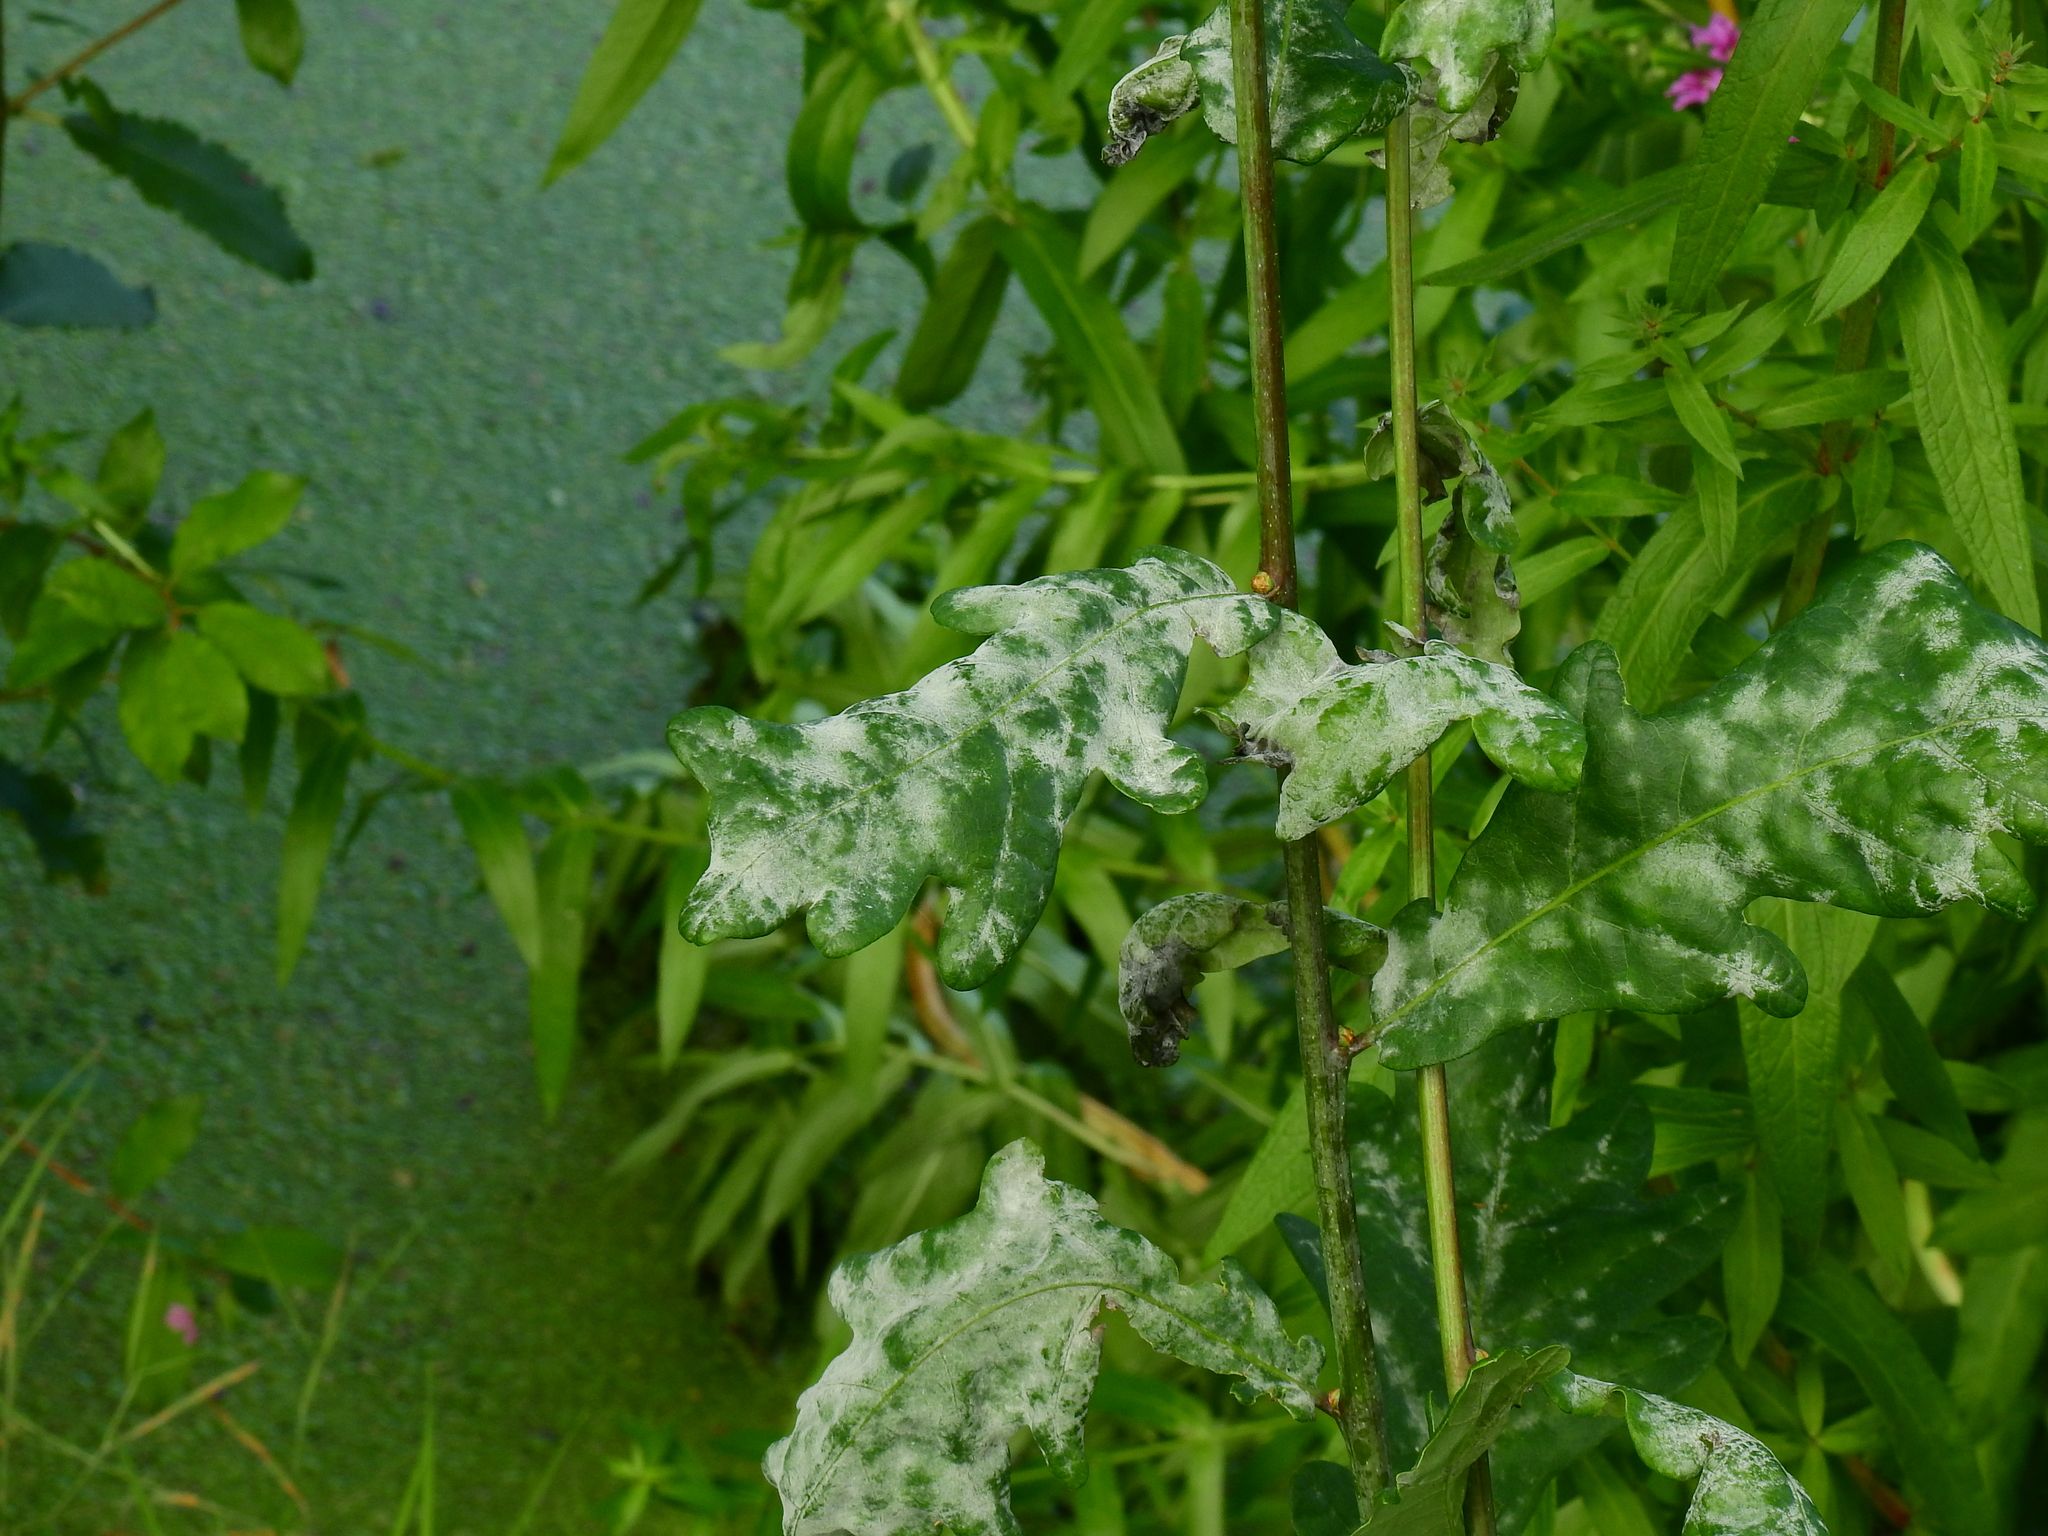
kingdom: Fungi
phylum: Ascomycota
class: Leotiomycetes
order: Helotiales
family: Erysiphaceae
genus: Erysiphe
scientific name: Erysiphe alphitoides
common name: Oak mildew
